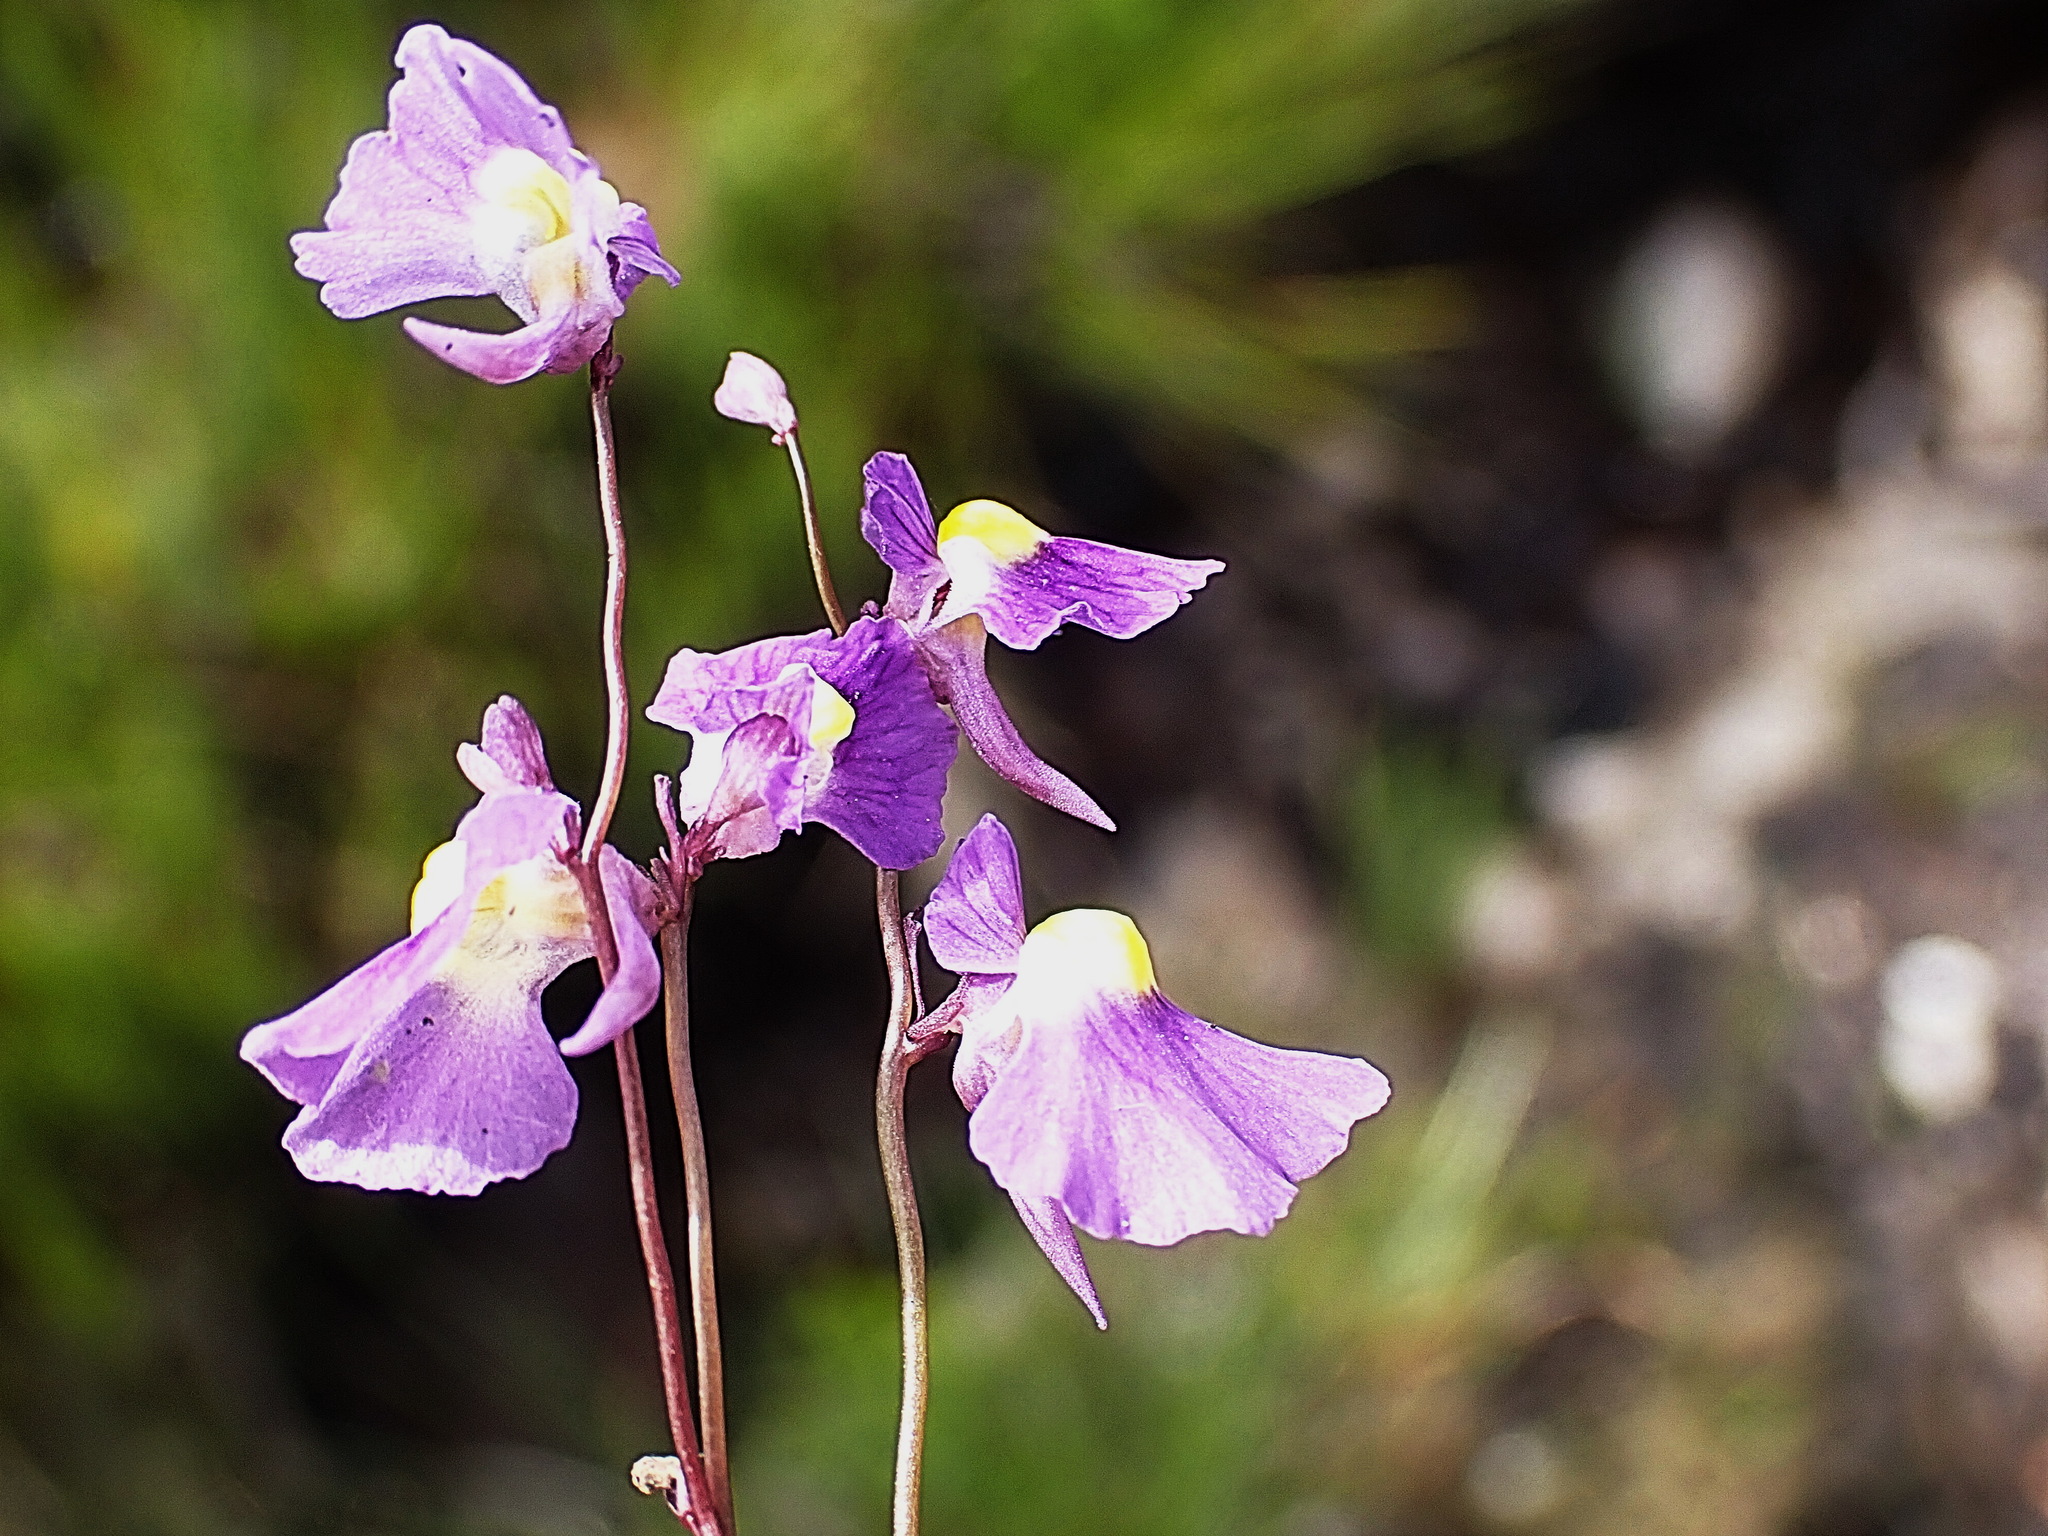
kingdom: Plantae
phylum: Tracheophyta
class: Magnoliopsida
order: Lamiales
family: Lentibulariaceae
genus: Utricularia
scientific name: Utricularia welwitschii
